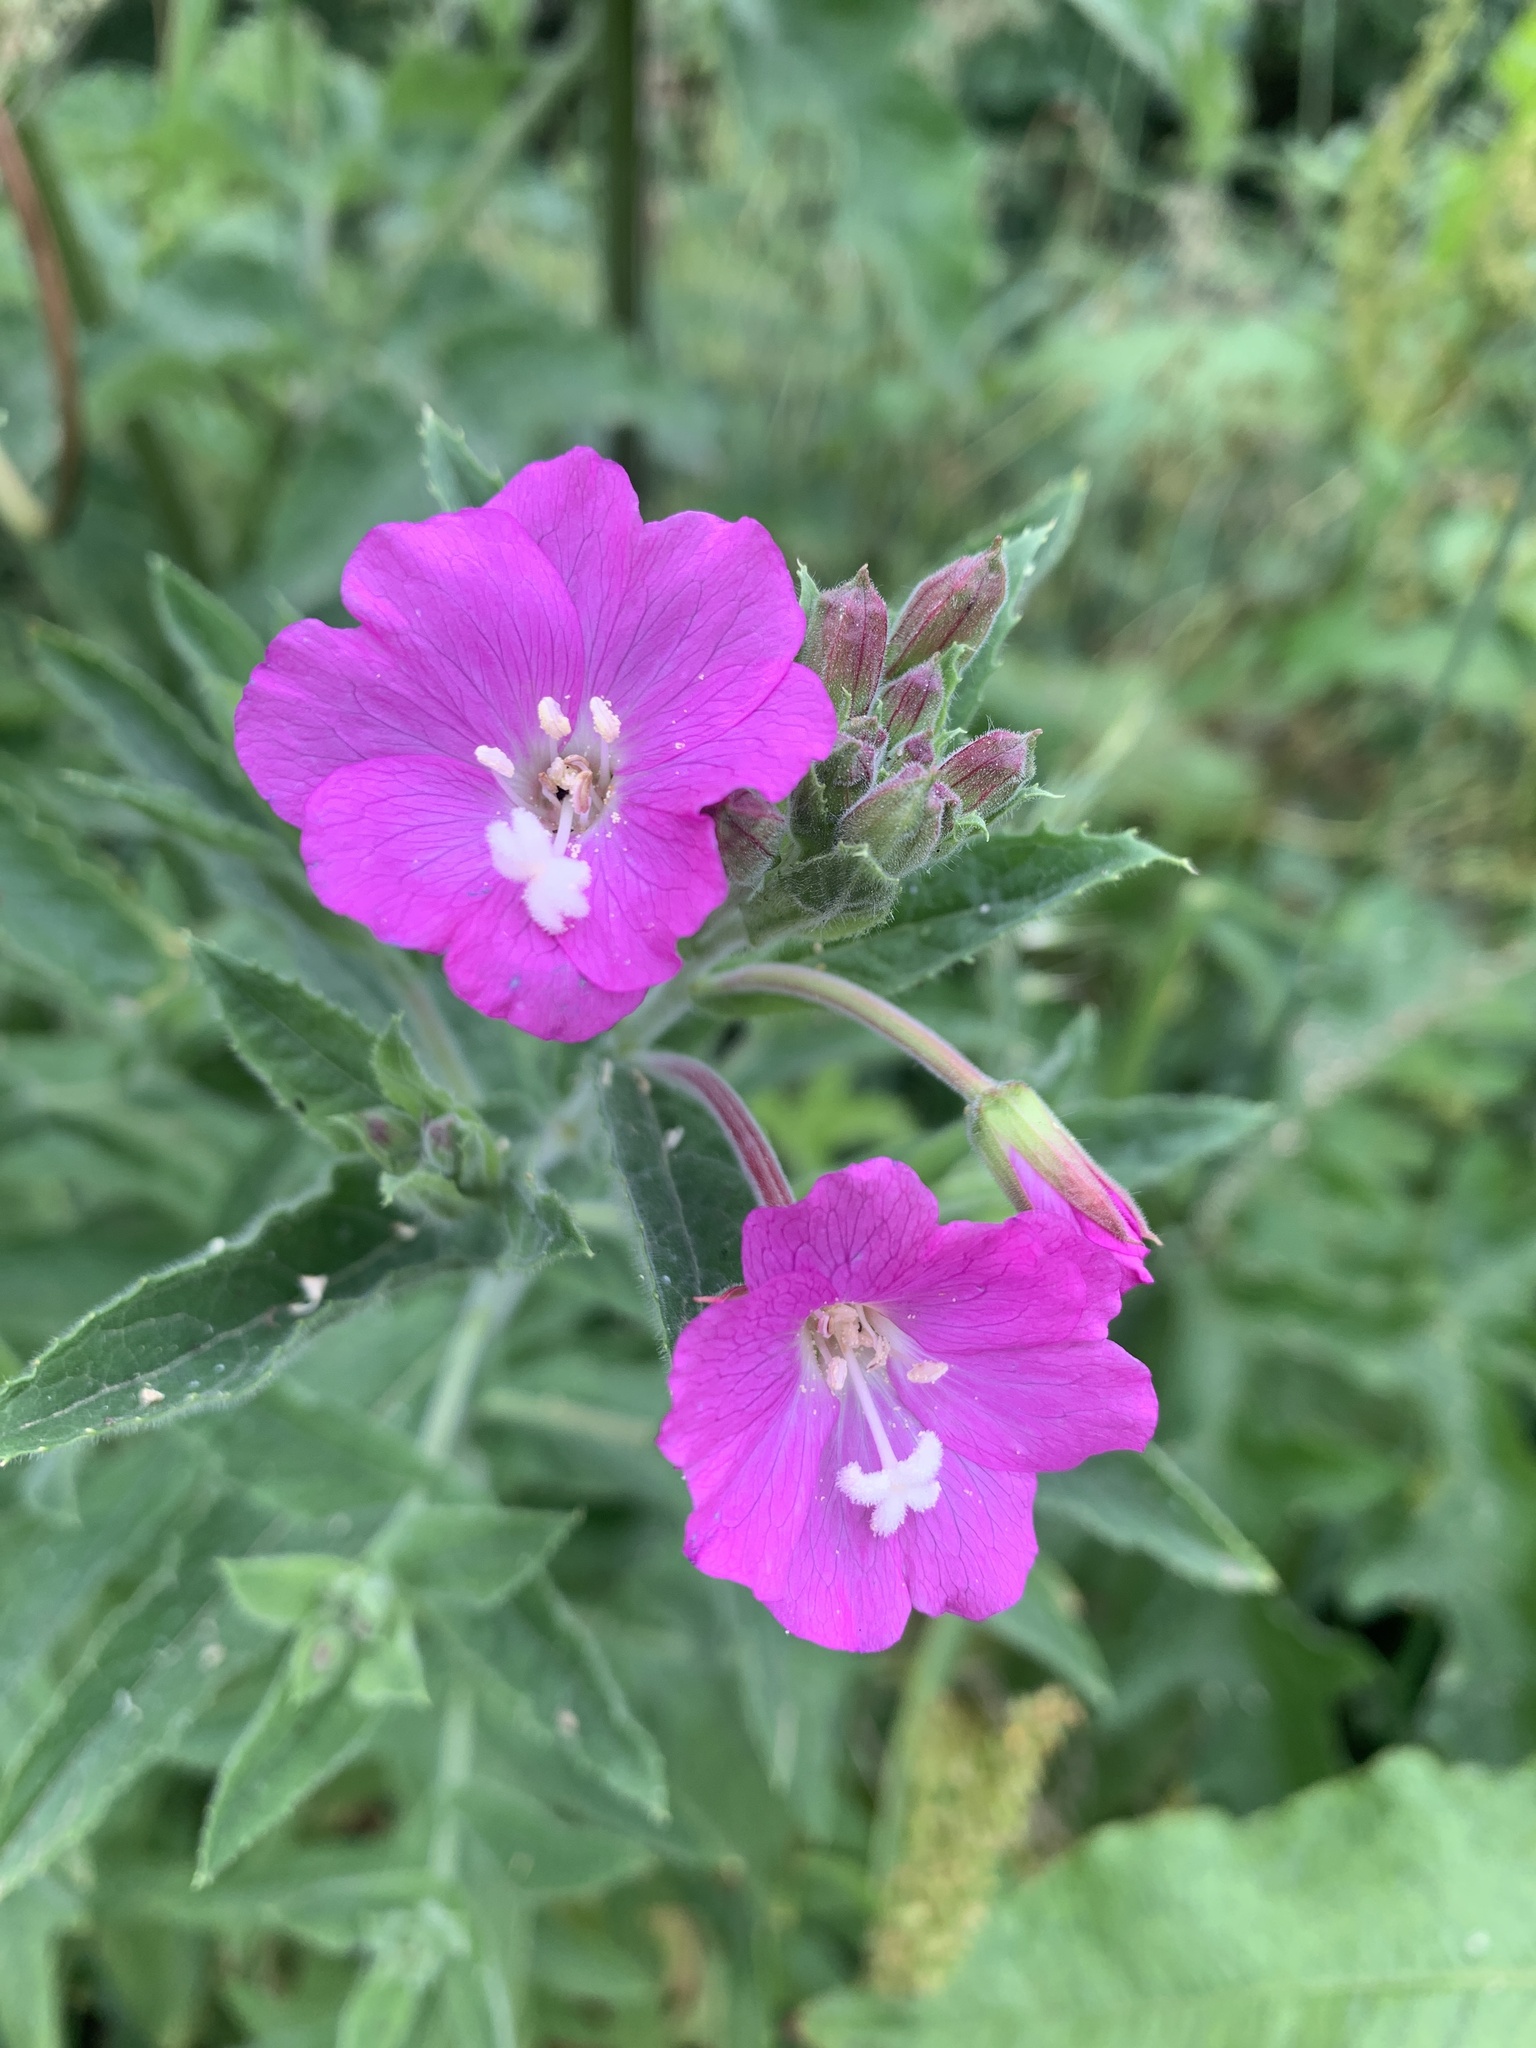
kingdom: Plantae
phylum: Tracheophyta
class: Magnoliopsida
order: Myrtales
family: Onagraceae
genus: Epilobium
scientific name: Epilobium hirsutum
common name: Great willowherb
